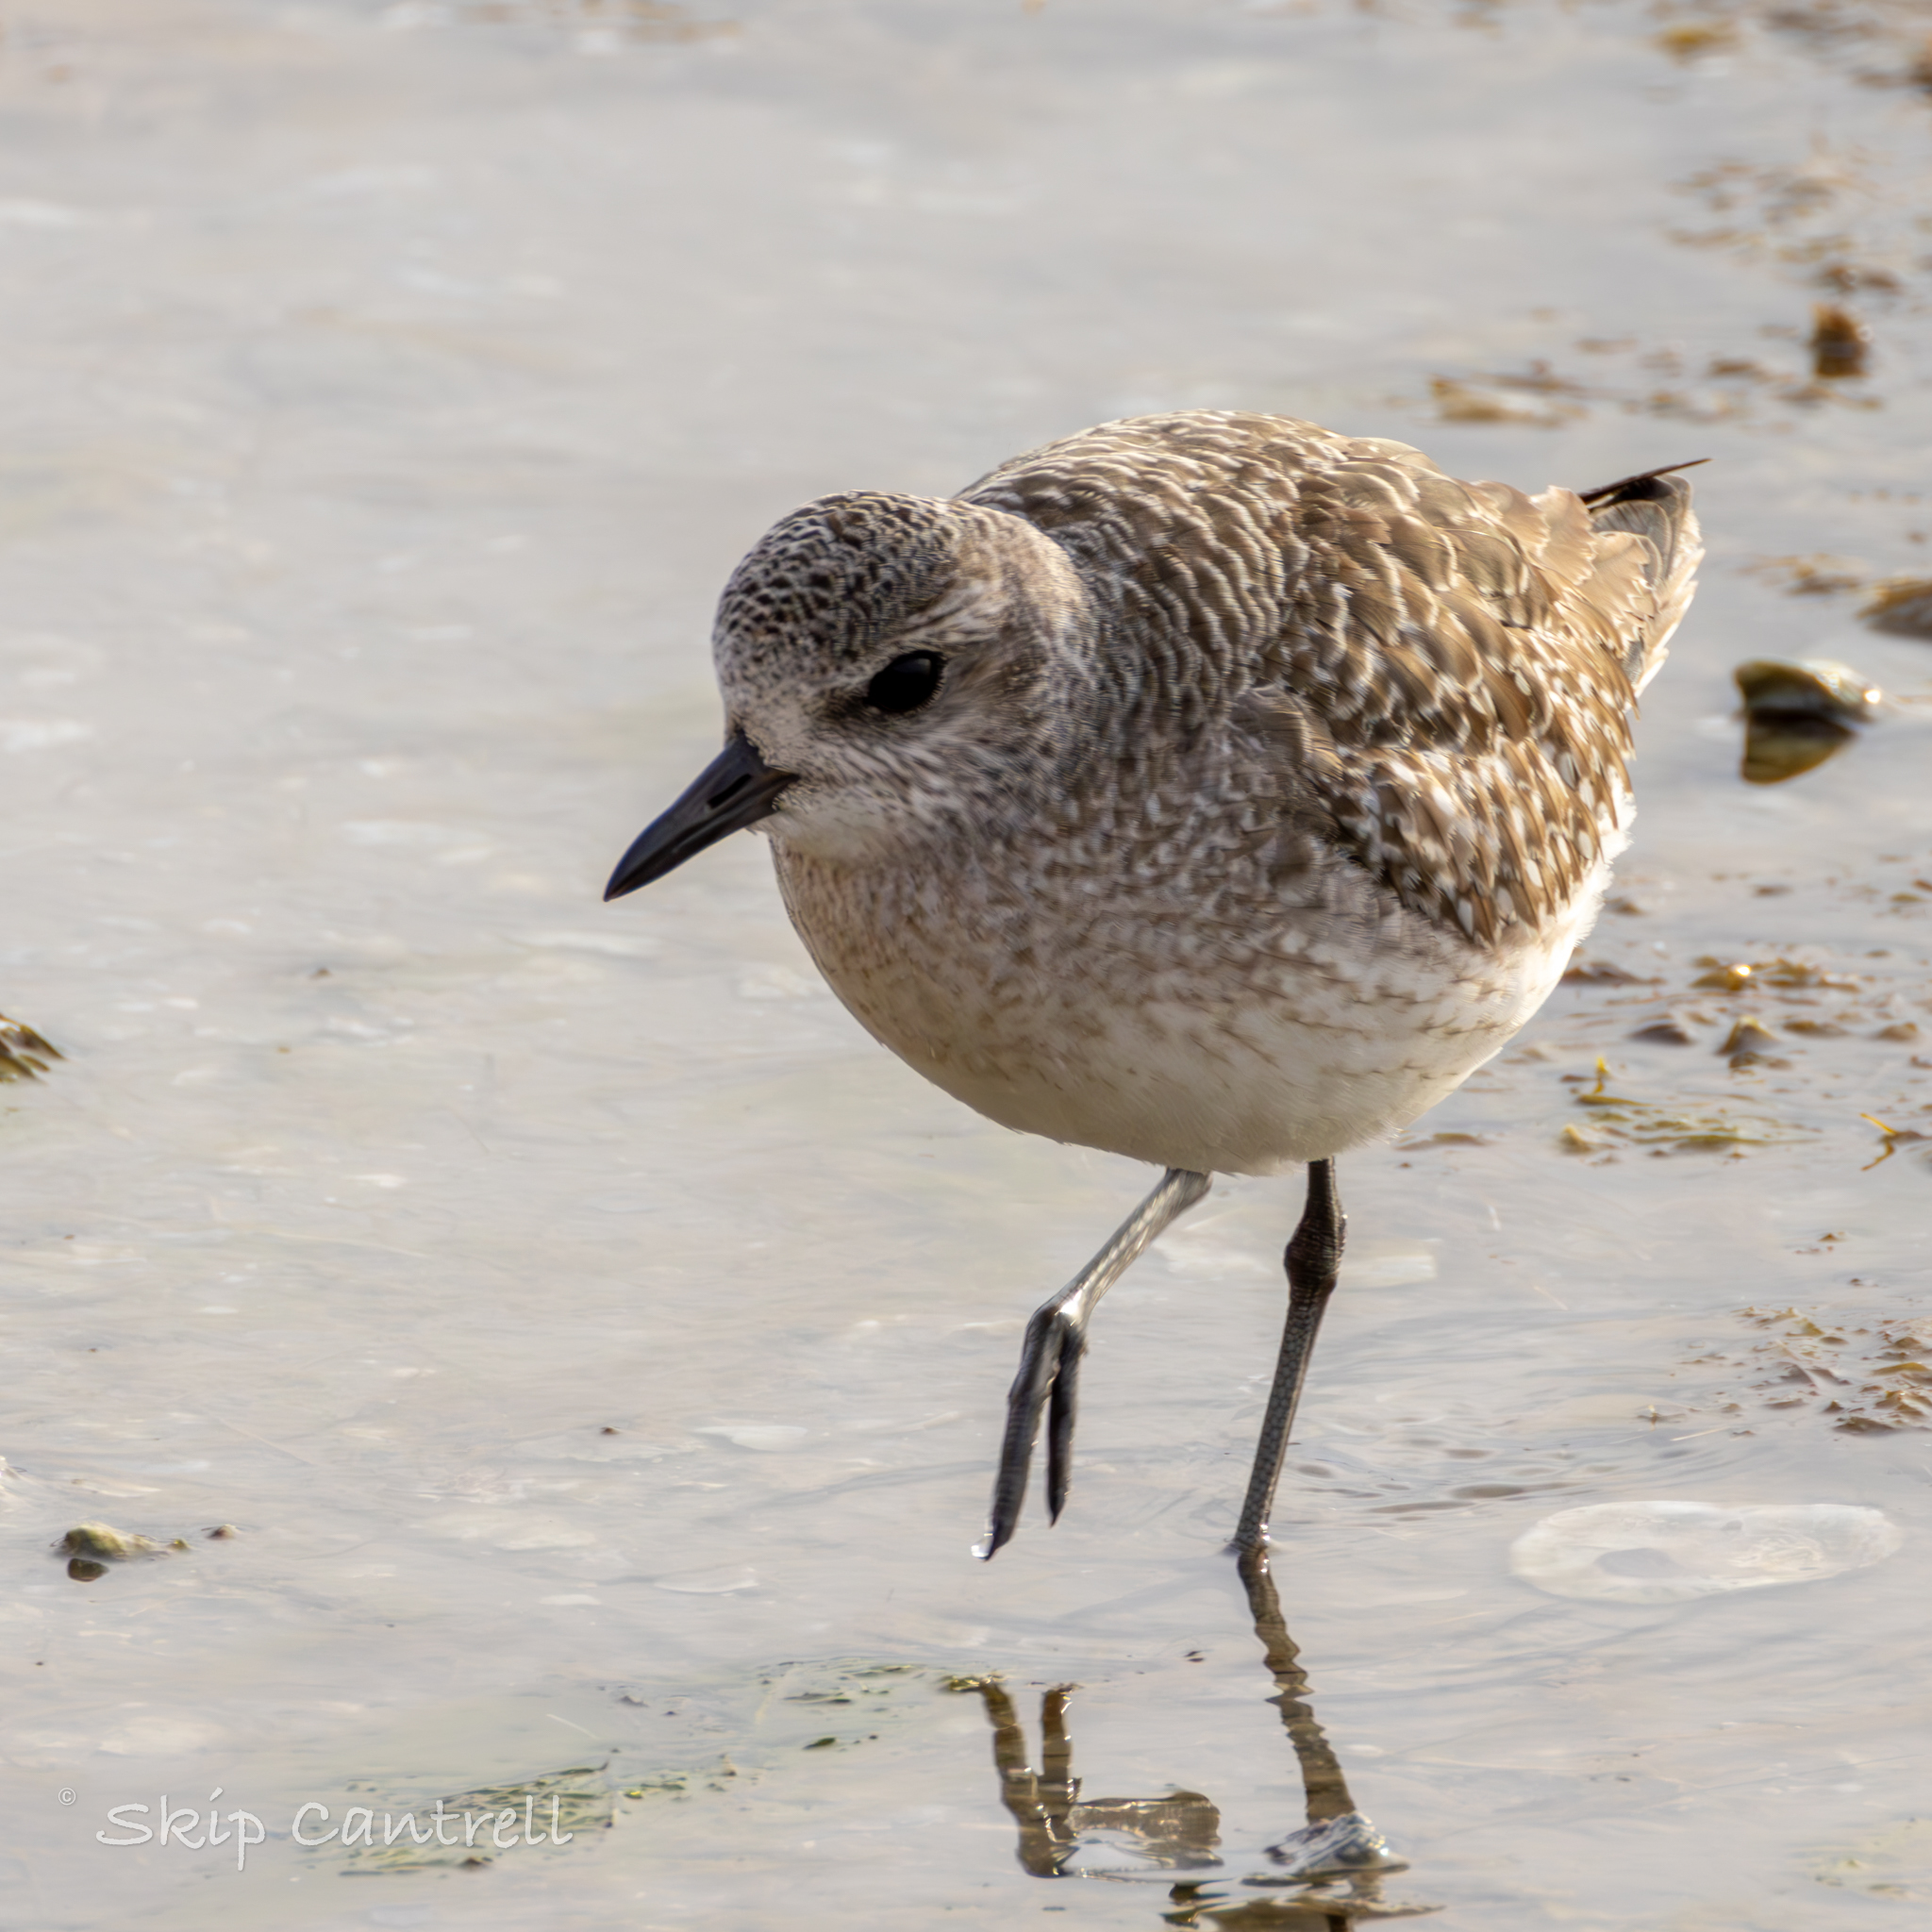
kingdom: Animalia
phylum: Chordata
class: Aves
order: Charadriiformes
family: Charadriidae
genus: Pluvialis
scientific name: Pluvialis squatarola
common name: Grey plover
